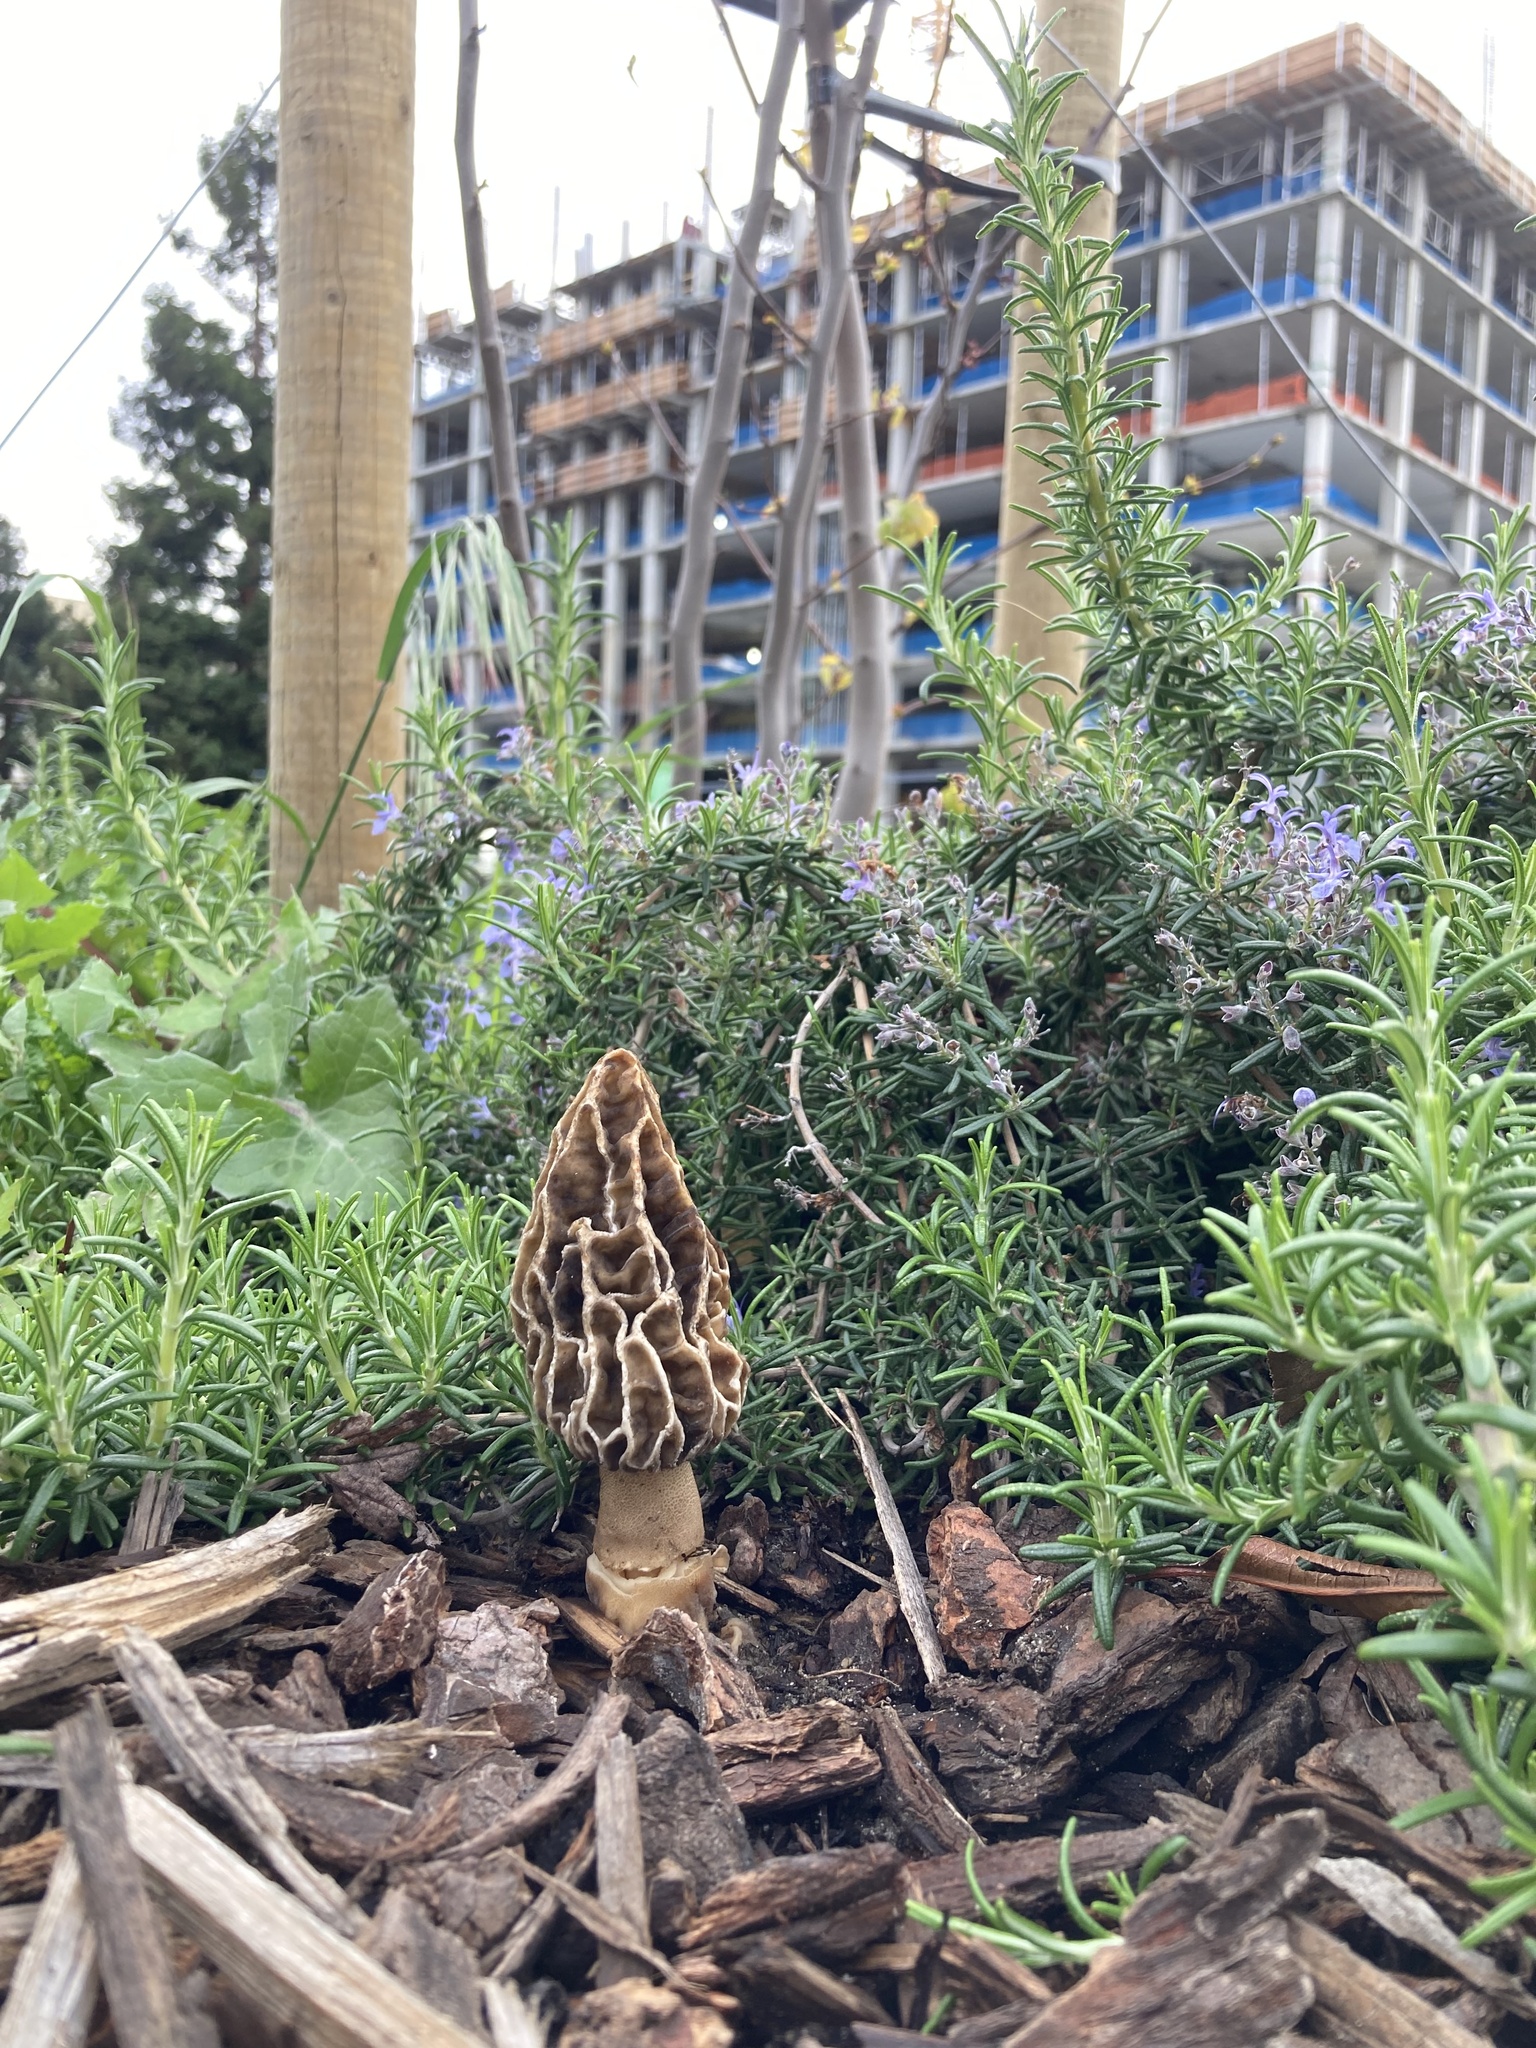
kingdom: Fungi
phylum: Ascomycota
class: Pezizomycetes
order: Pezizales
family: Morchellaceae
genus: Morchella
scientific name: Morchella rufobrunnea
